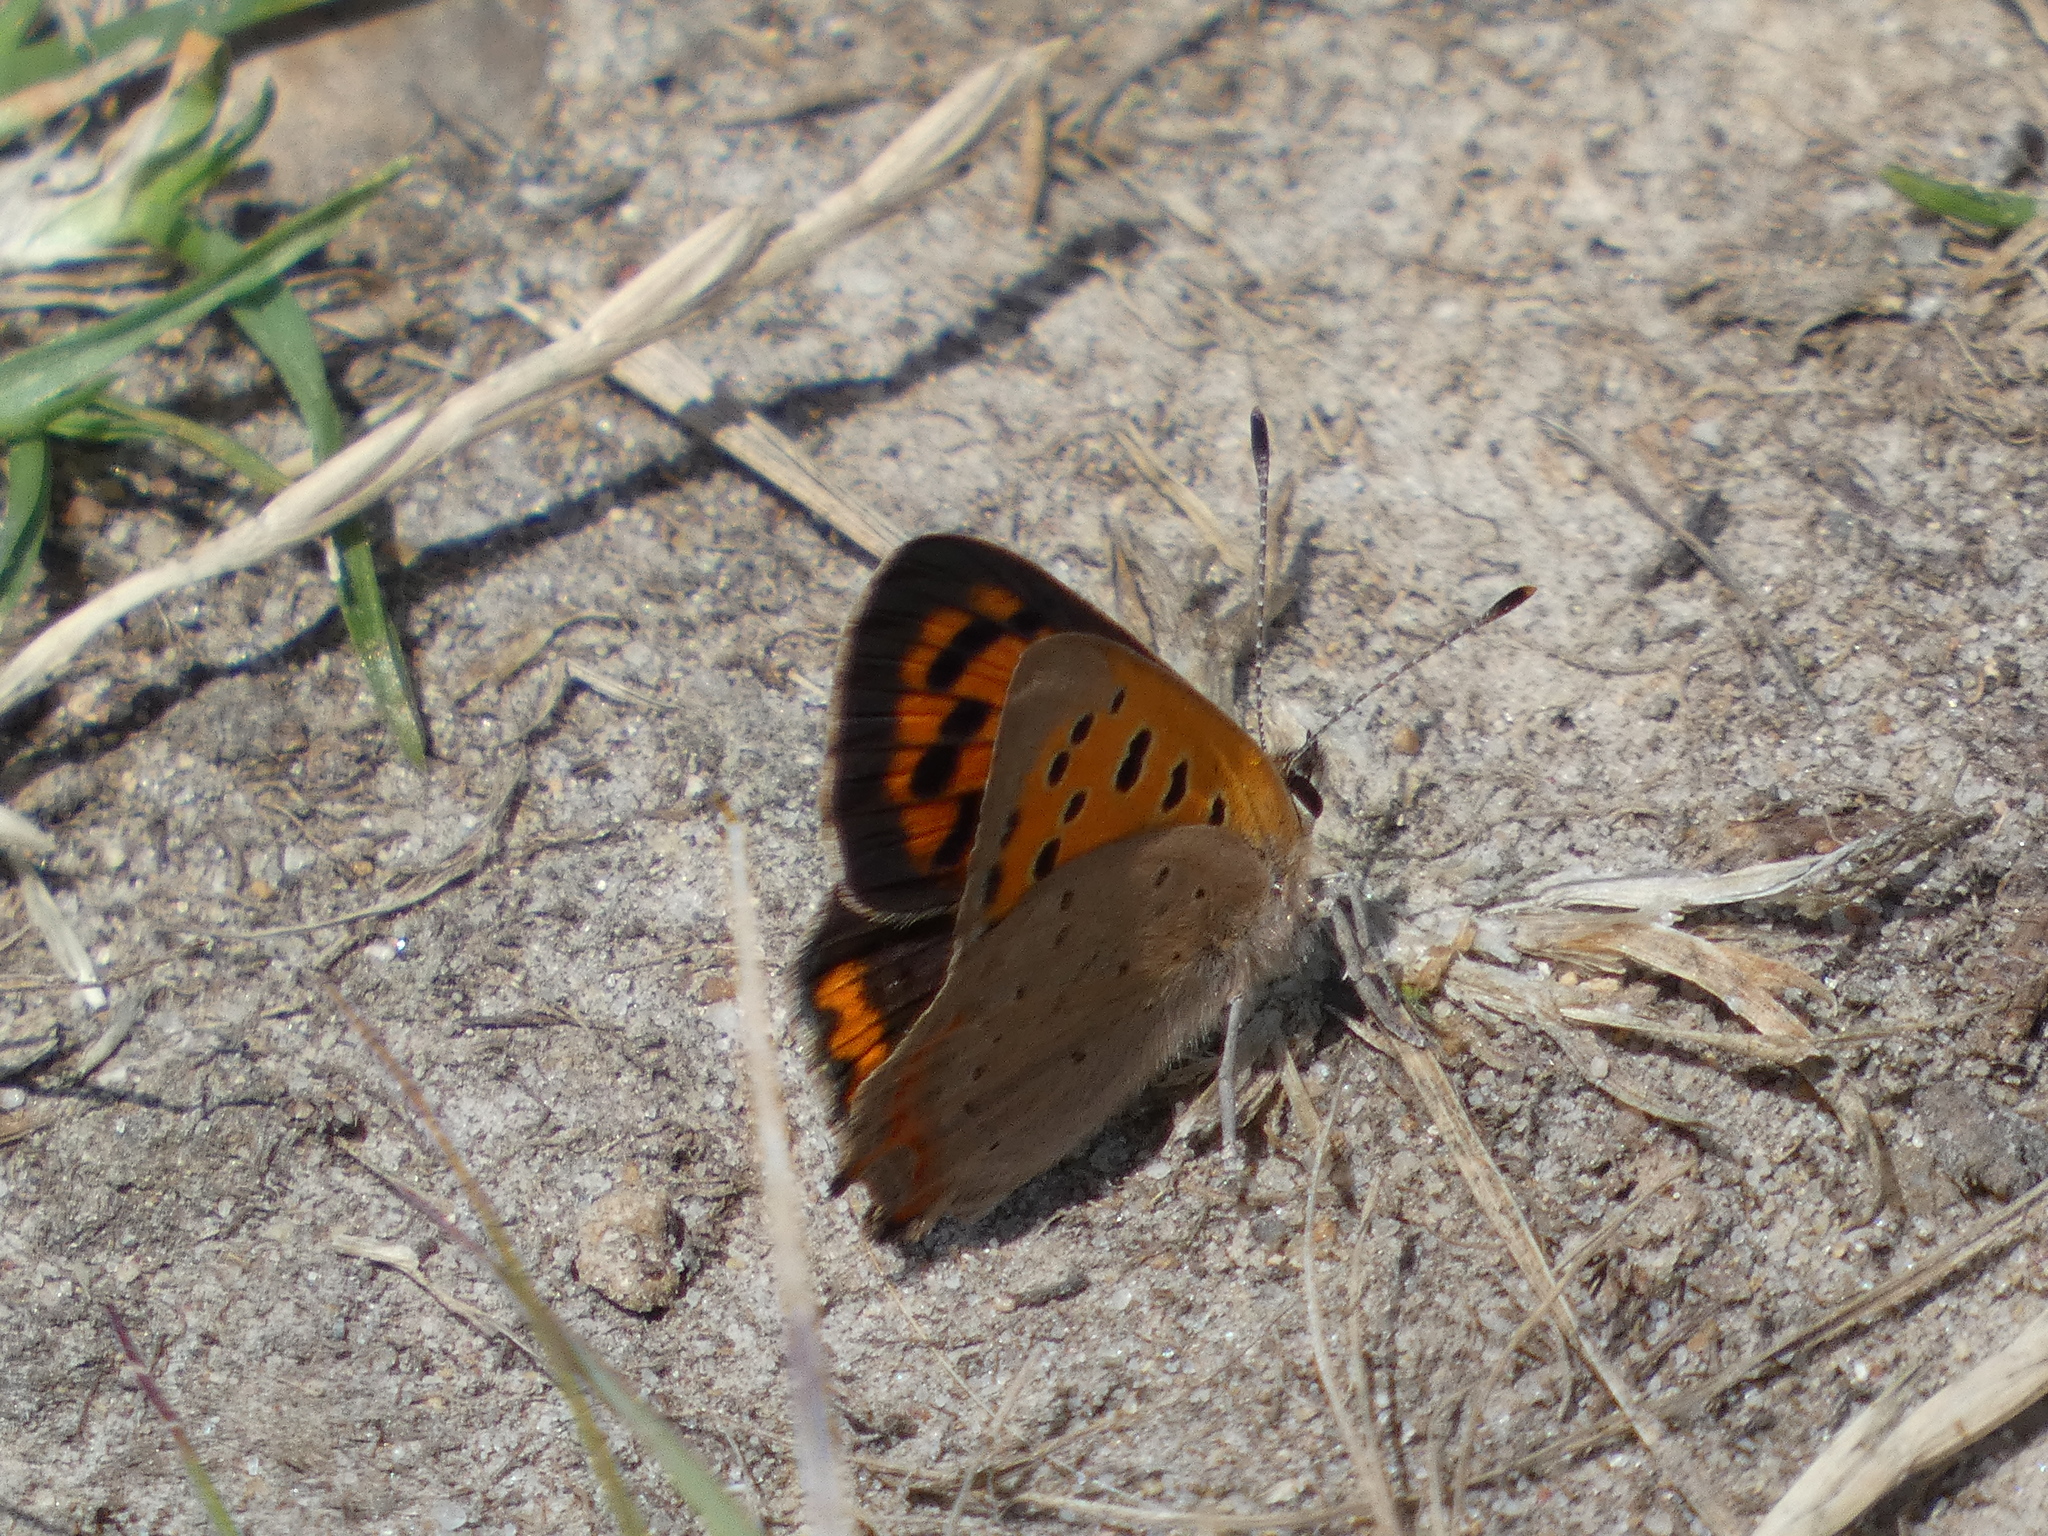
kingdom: Animalia
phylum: Arthropoda
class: Insecta
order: Lepidoptera
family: Lycaenidae
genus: Lycaena
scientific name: Lycaena phlaeas
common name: Small copper
